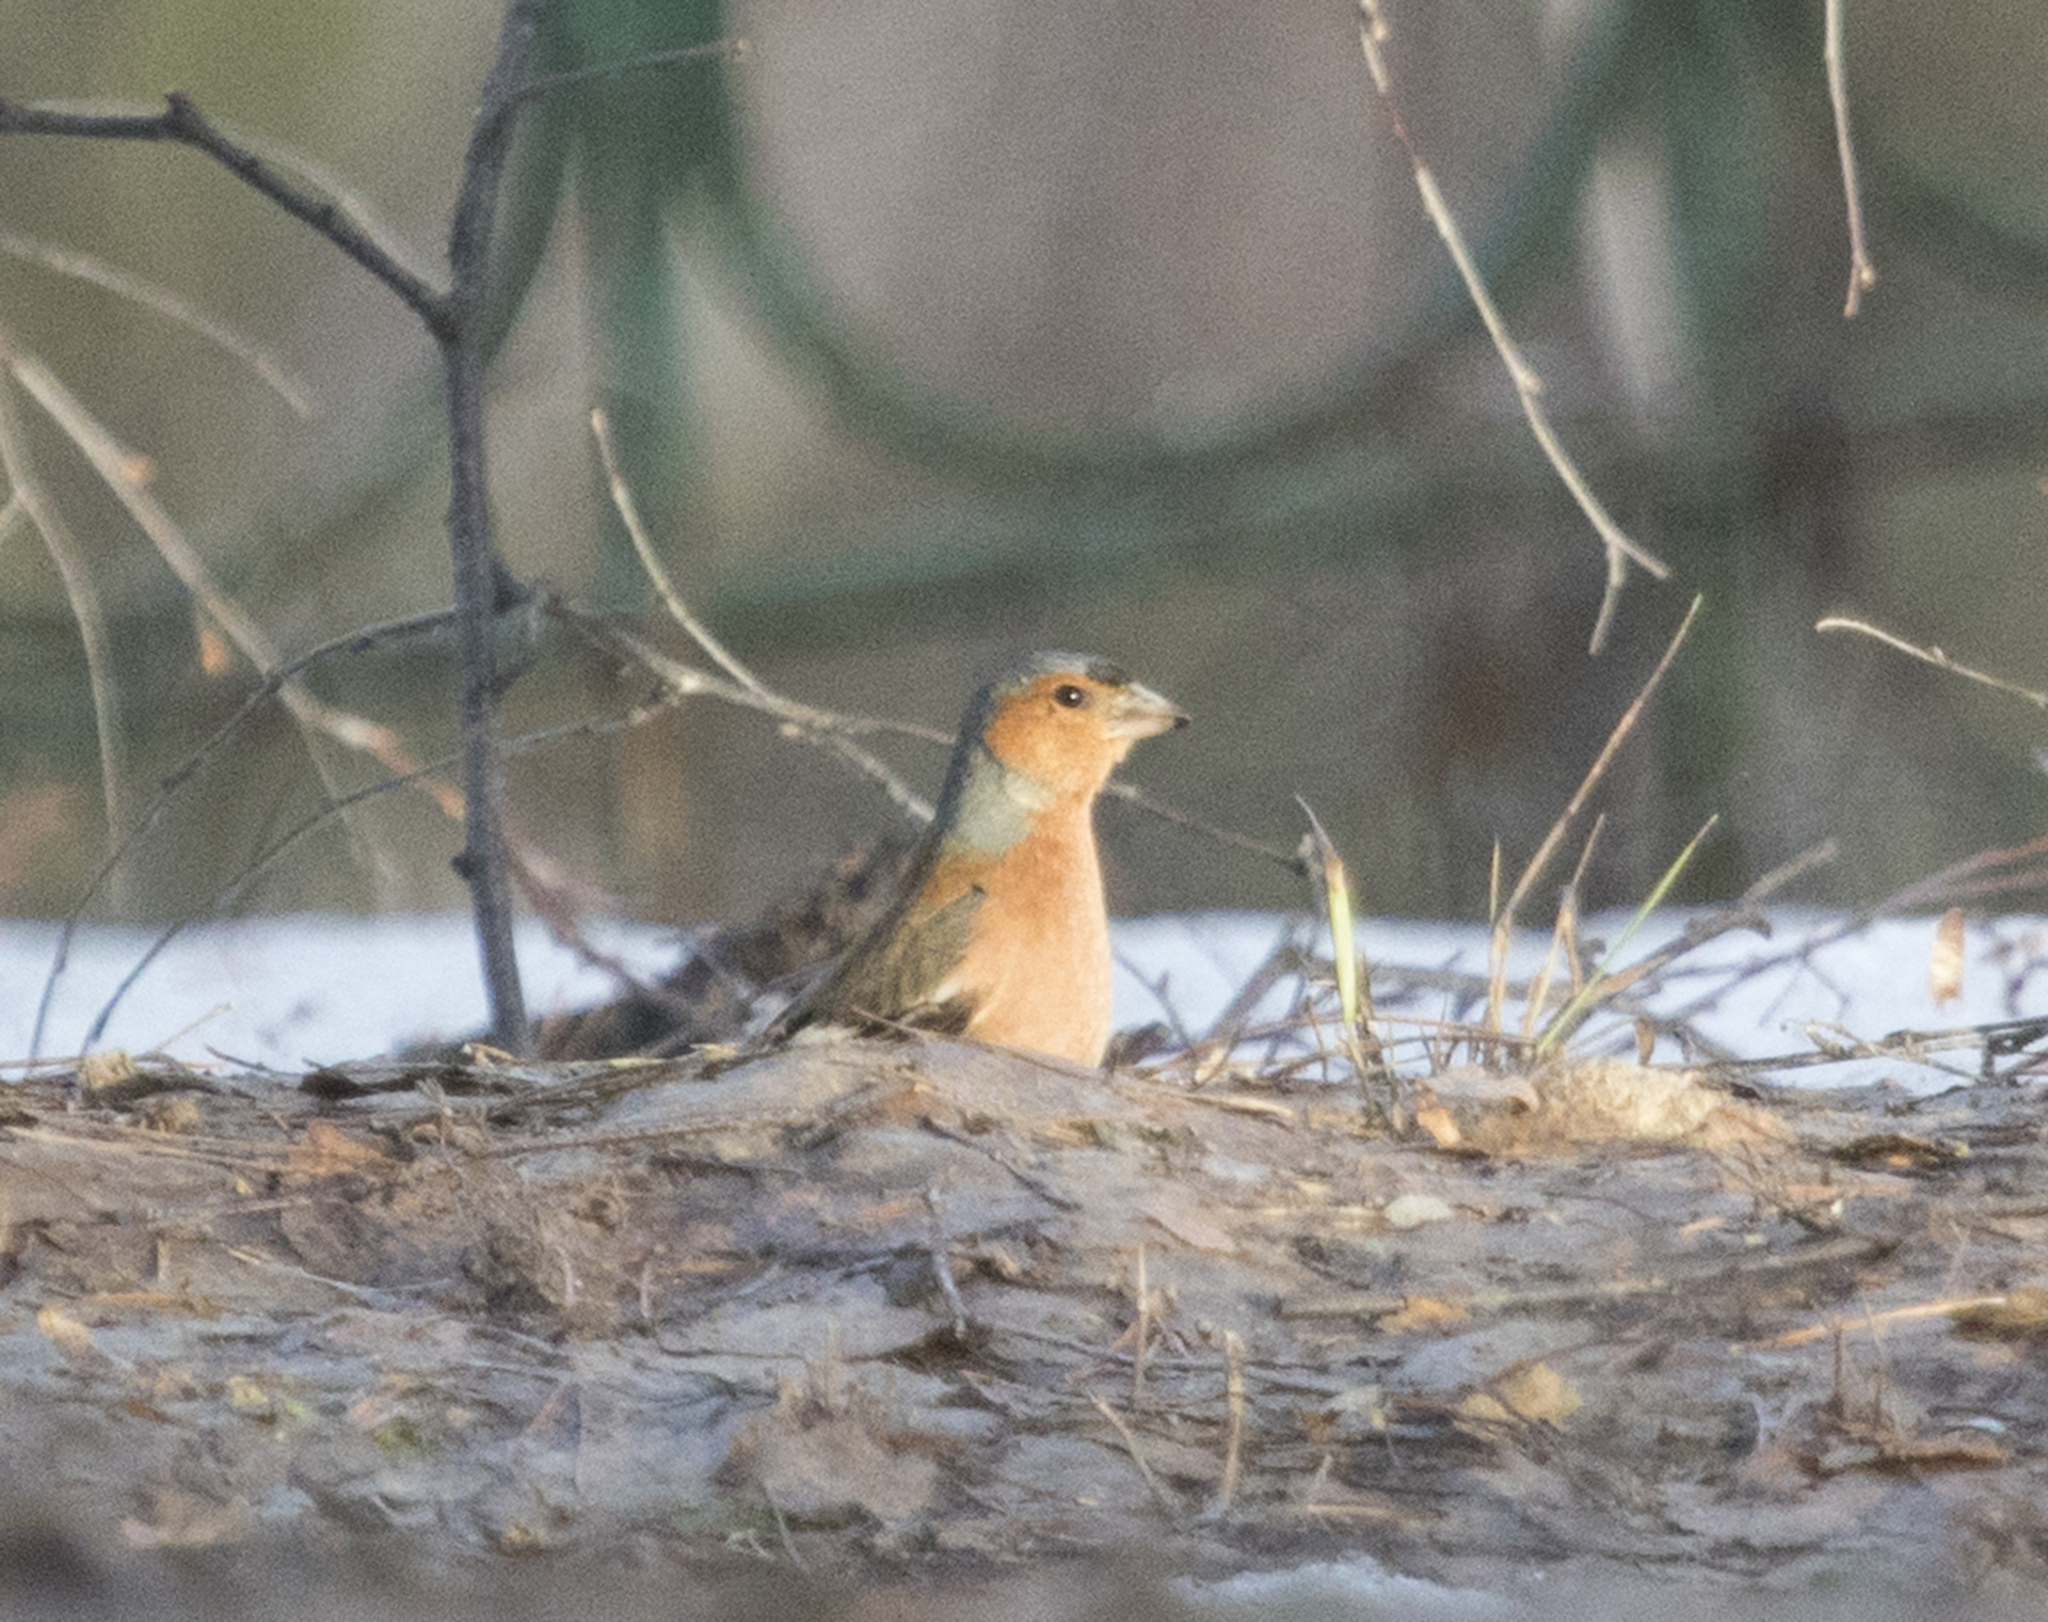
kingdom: Animalia
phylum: Chordata
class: Aves
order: Passeriformes
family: Fringillidae
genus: Fringilla
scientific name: Fringilla coelebs
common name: Common chaffinch
